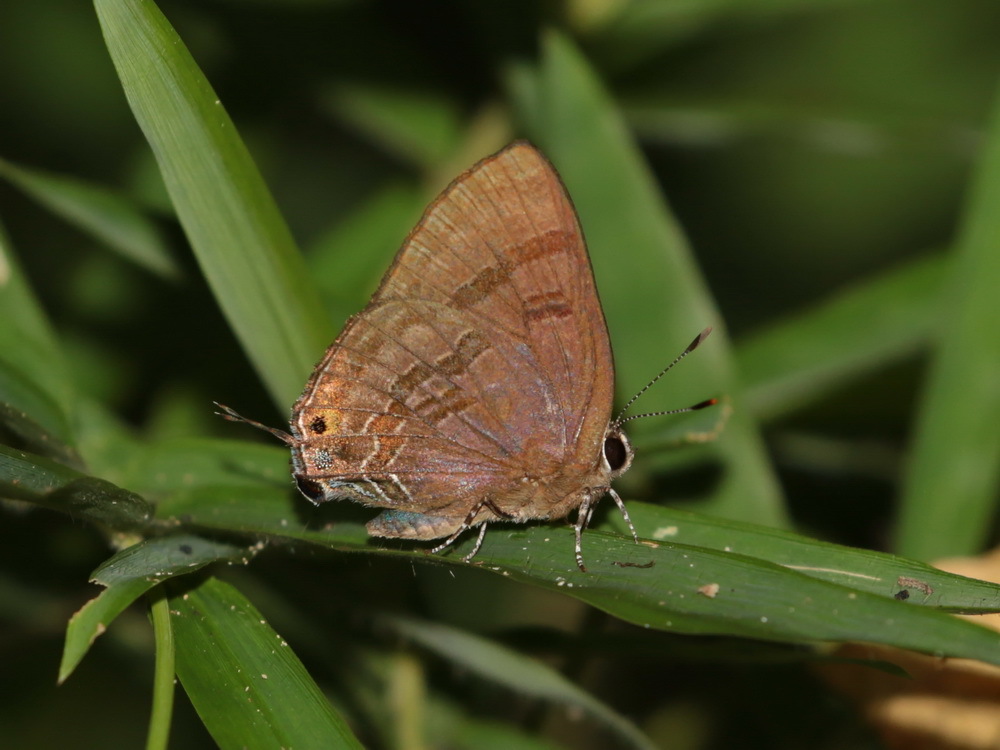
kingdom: Animalia
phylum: Arthropoda
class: Insecta
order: Lepidoptera
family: Lycaenidae
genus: Rapala
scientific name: Rapala varuna
